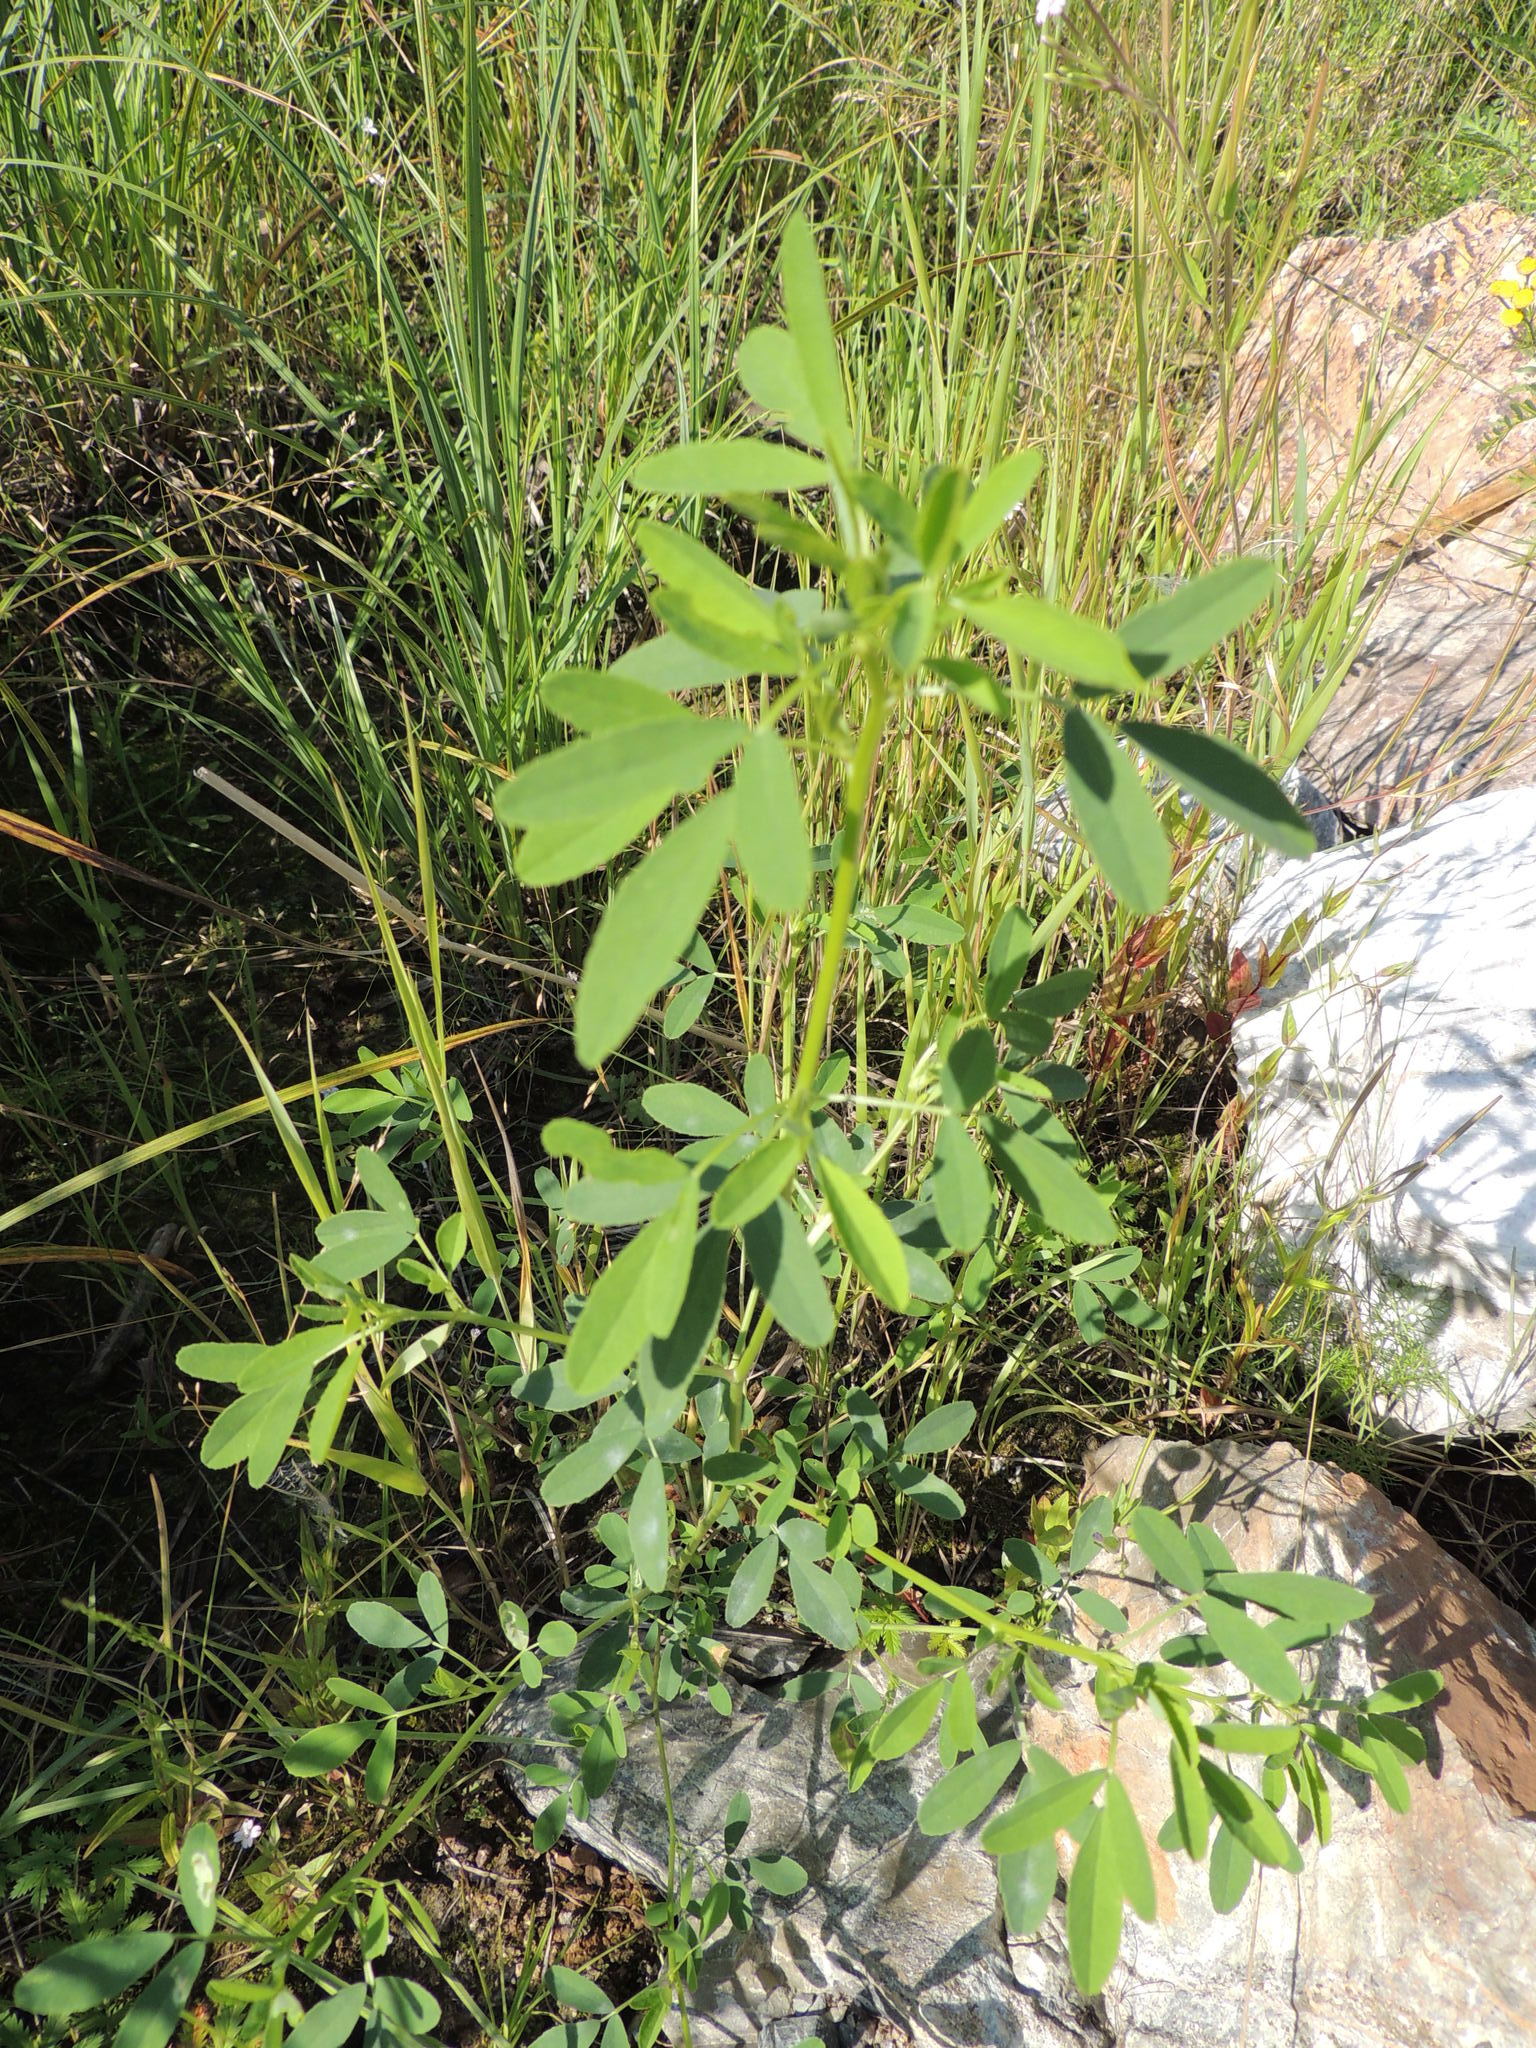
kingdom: Plantae
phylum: Tracheophyta
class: Magnoliopsida
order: Fabales
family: Fabaceae
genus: Melilotus
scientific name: Melilotus
